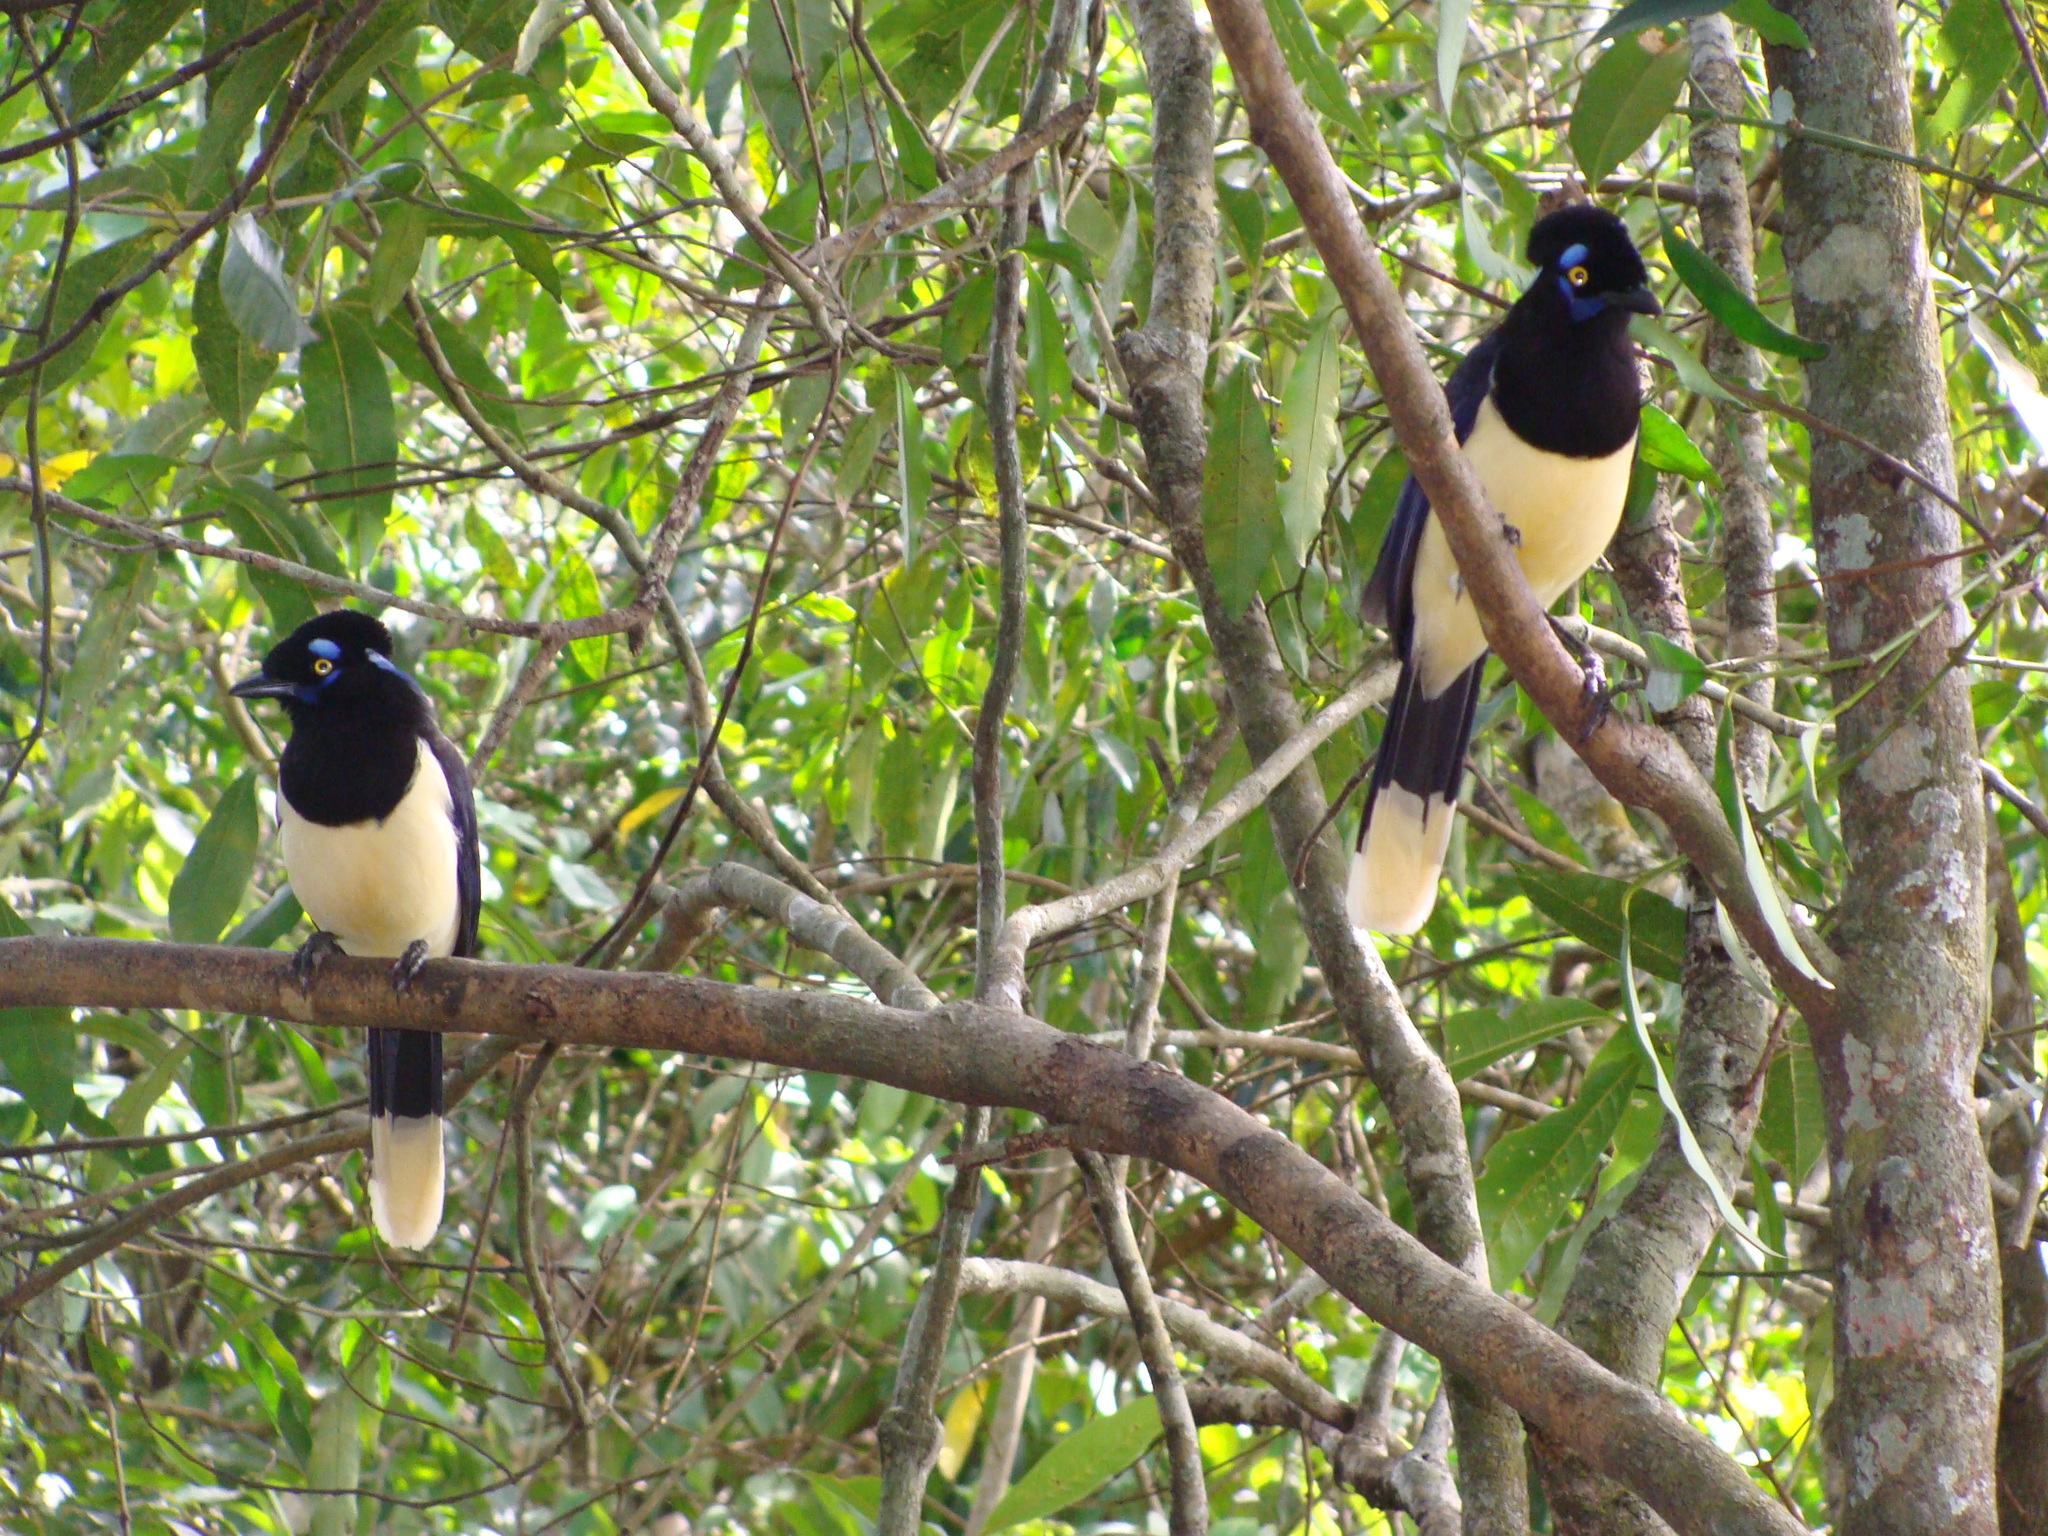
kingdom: Animalia
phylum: Chordata
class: Aves
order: Passeriformes
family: Corvidae
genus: Cyanocorax
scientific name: Cyanocorax chrysops
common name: Plush-crested jay
